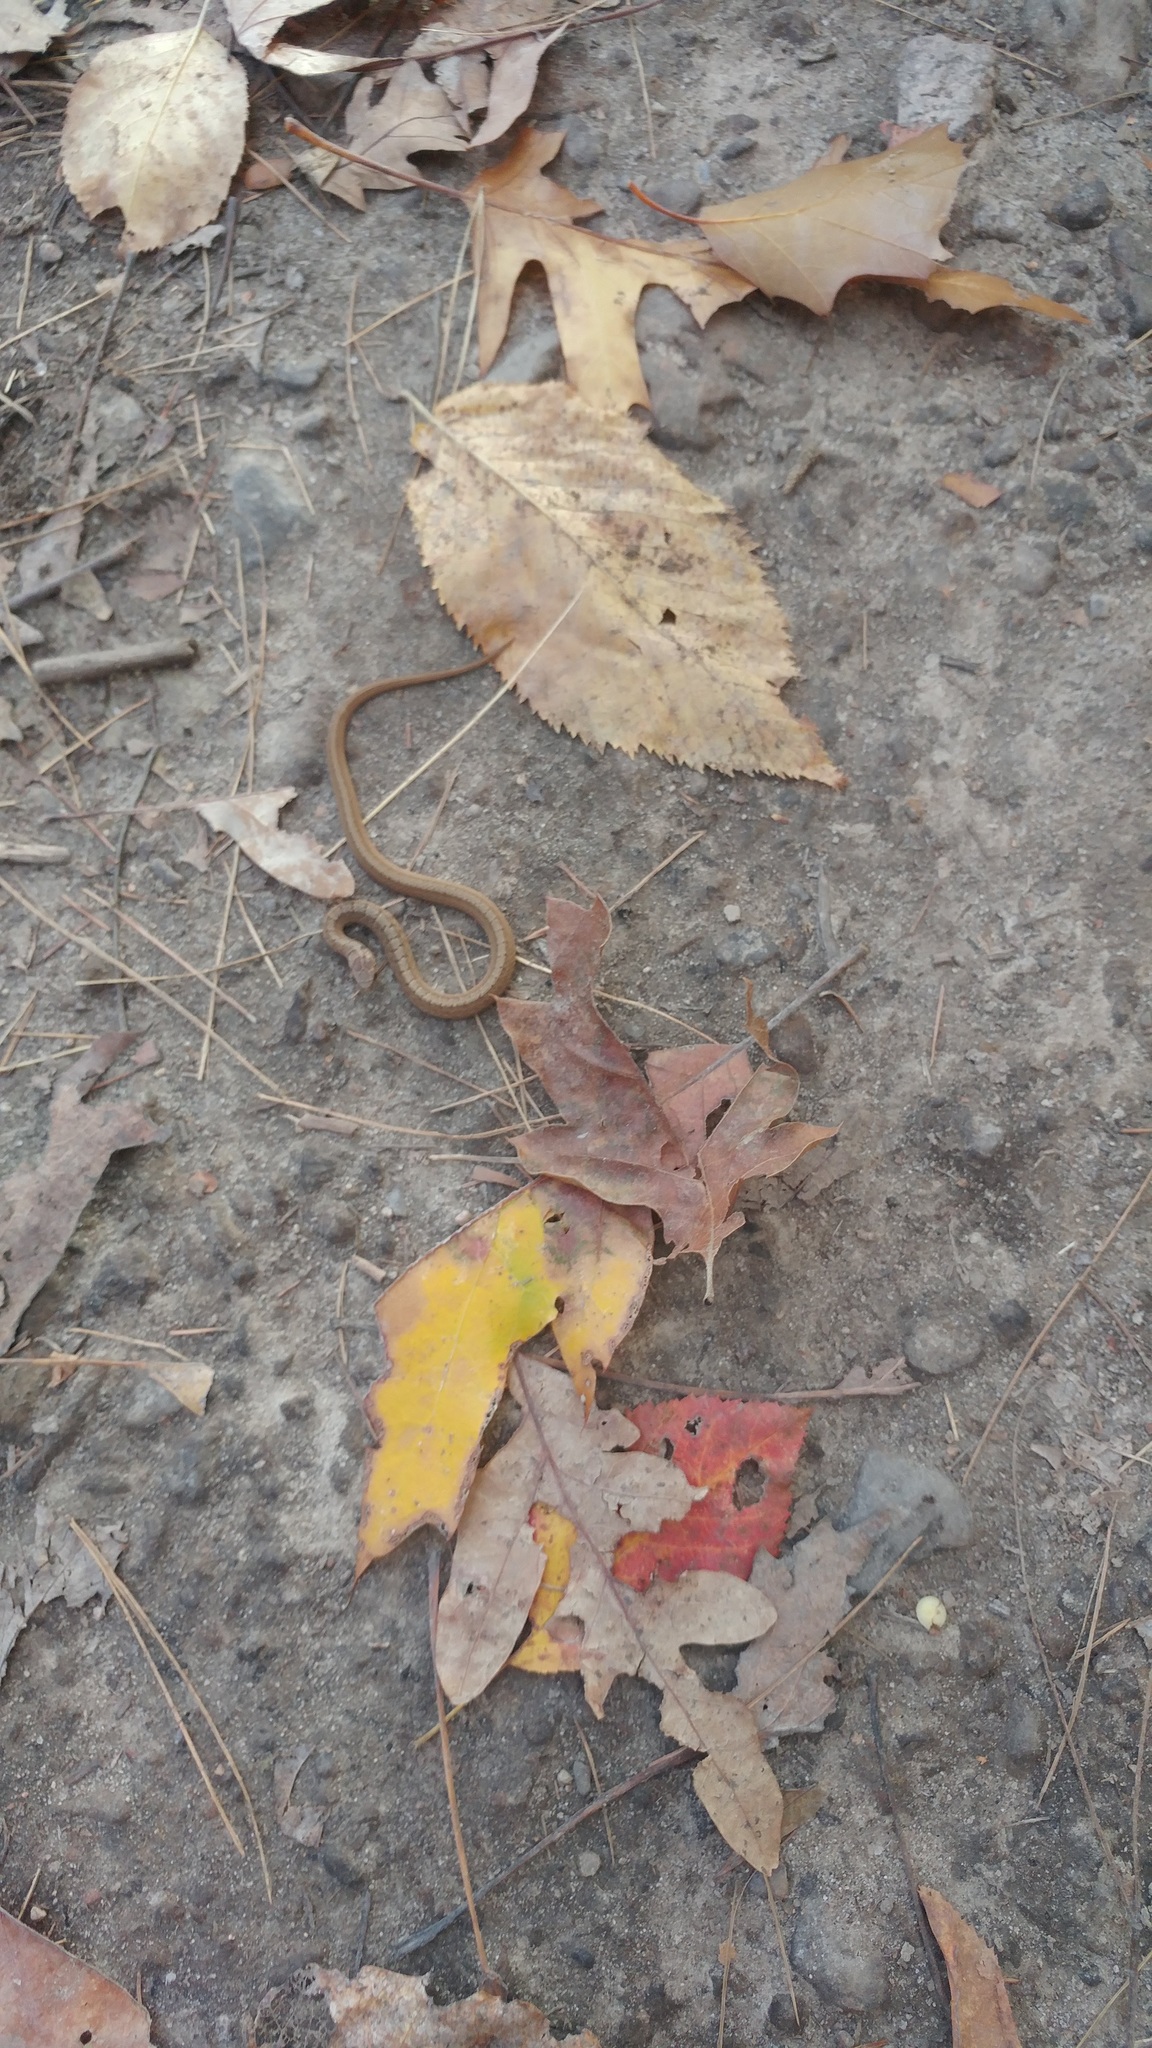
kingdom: Animalia
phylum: Chordata
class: Squamata
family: Colubridae
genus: Storeria
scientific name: Storeria dekayi
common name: (dekay’s) brown snake
